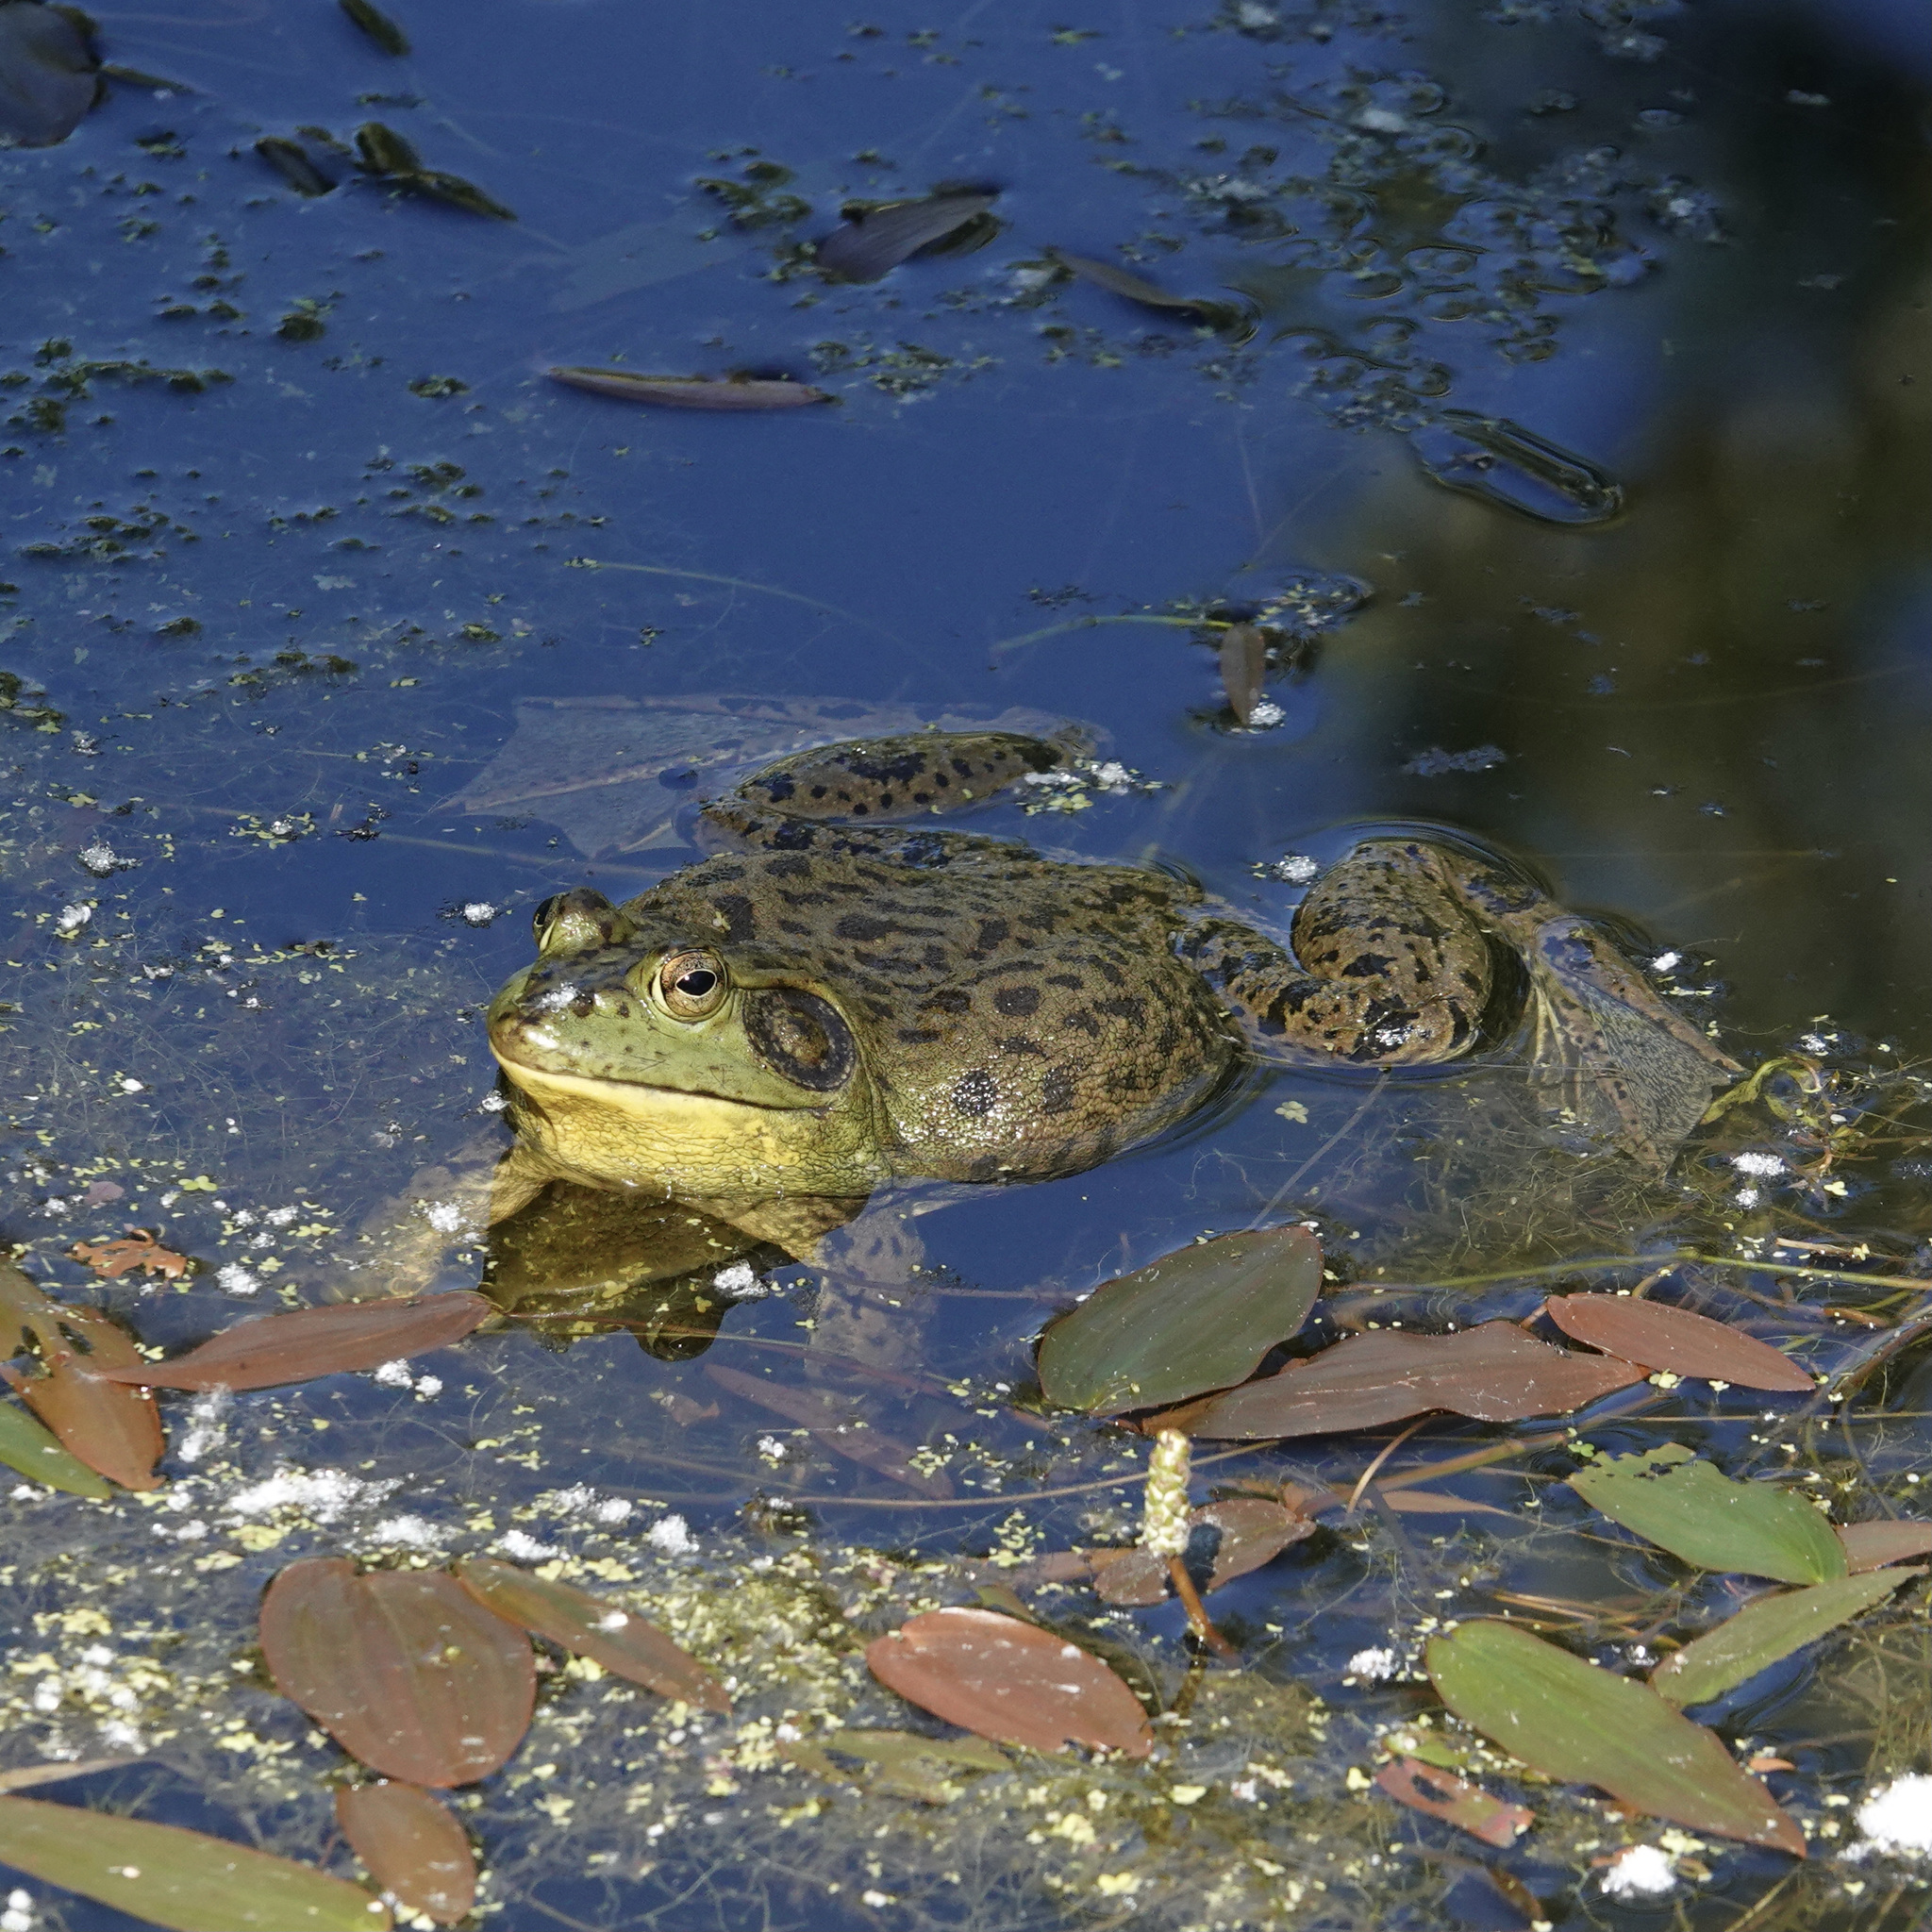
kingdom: Animalia
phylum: Chordata
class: Amphibia
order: Anura
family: Ranidae
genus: Lithobates
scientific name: Lithobates catesbeianus
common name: American bullfrog
